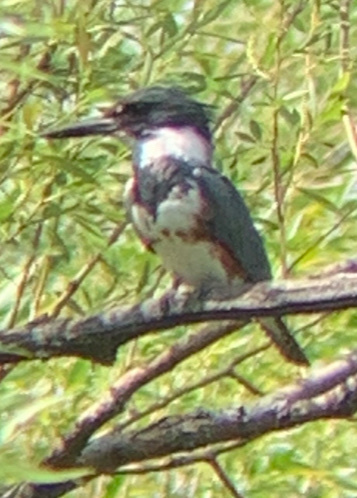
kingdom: Animalia
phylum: Chordata
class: Aves
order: Coraciiformes
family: Alcedinidae
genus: Megaceryle
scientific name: Megaceryle alcyon
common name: Belted kingfisher
